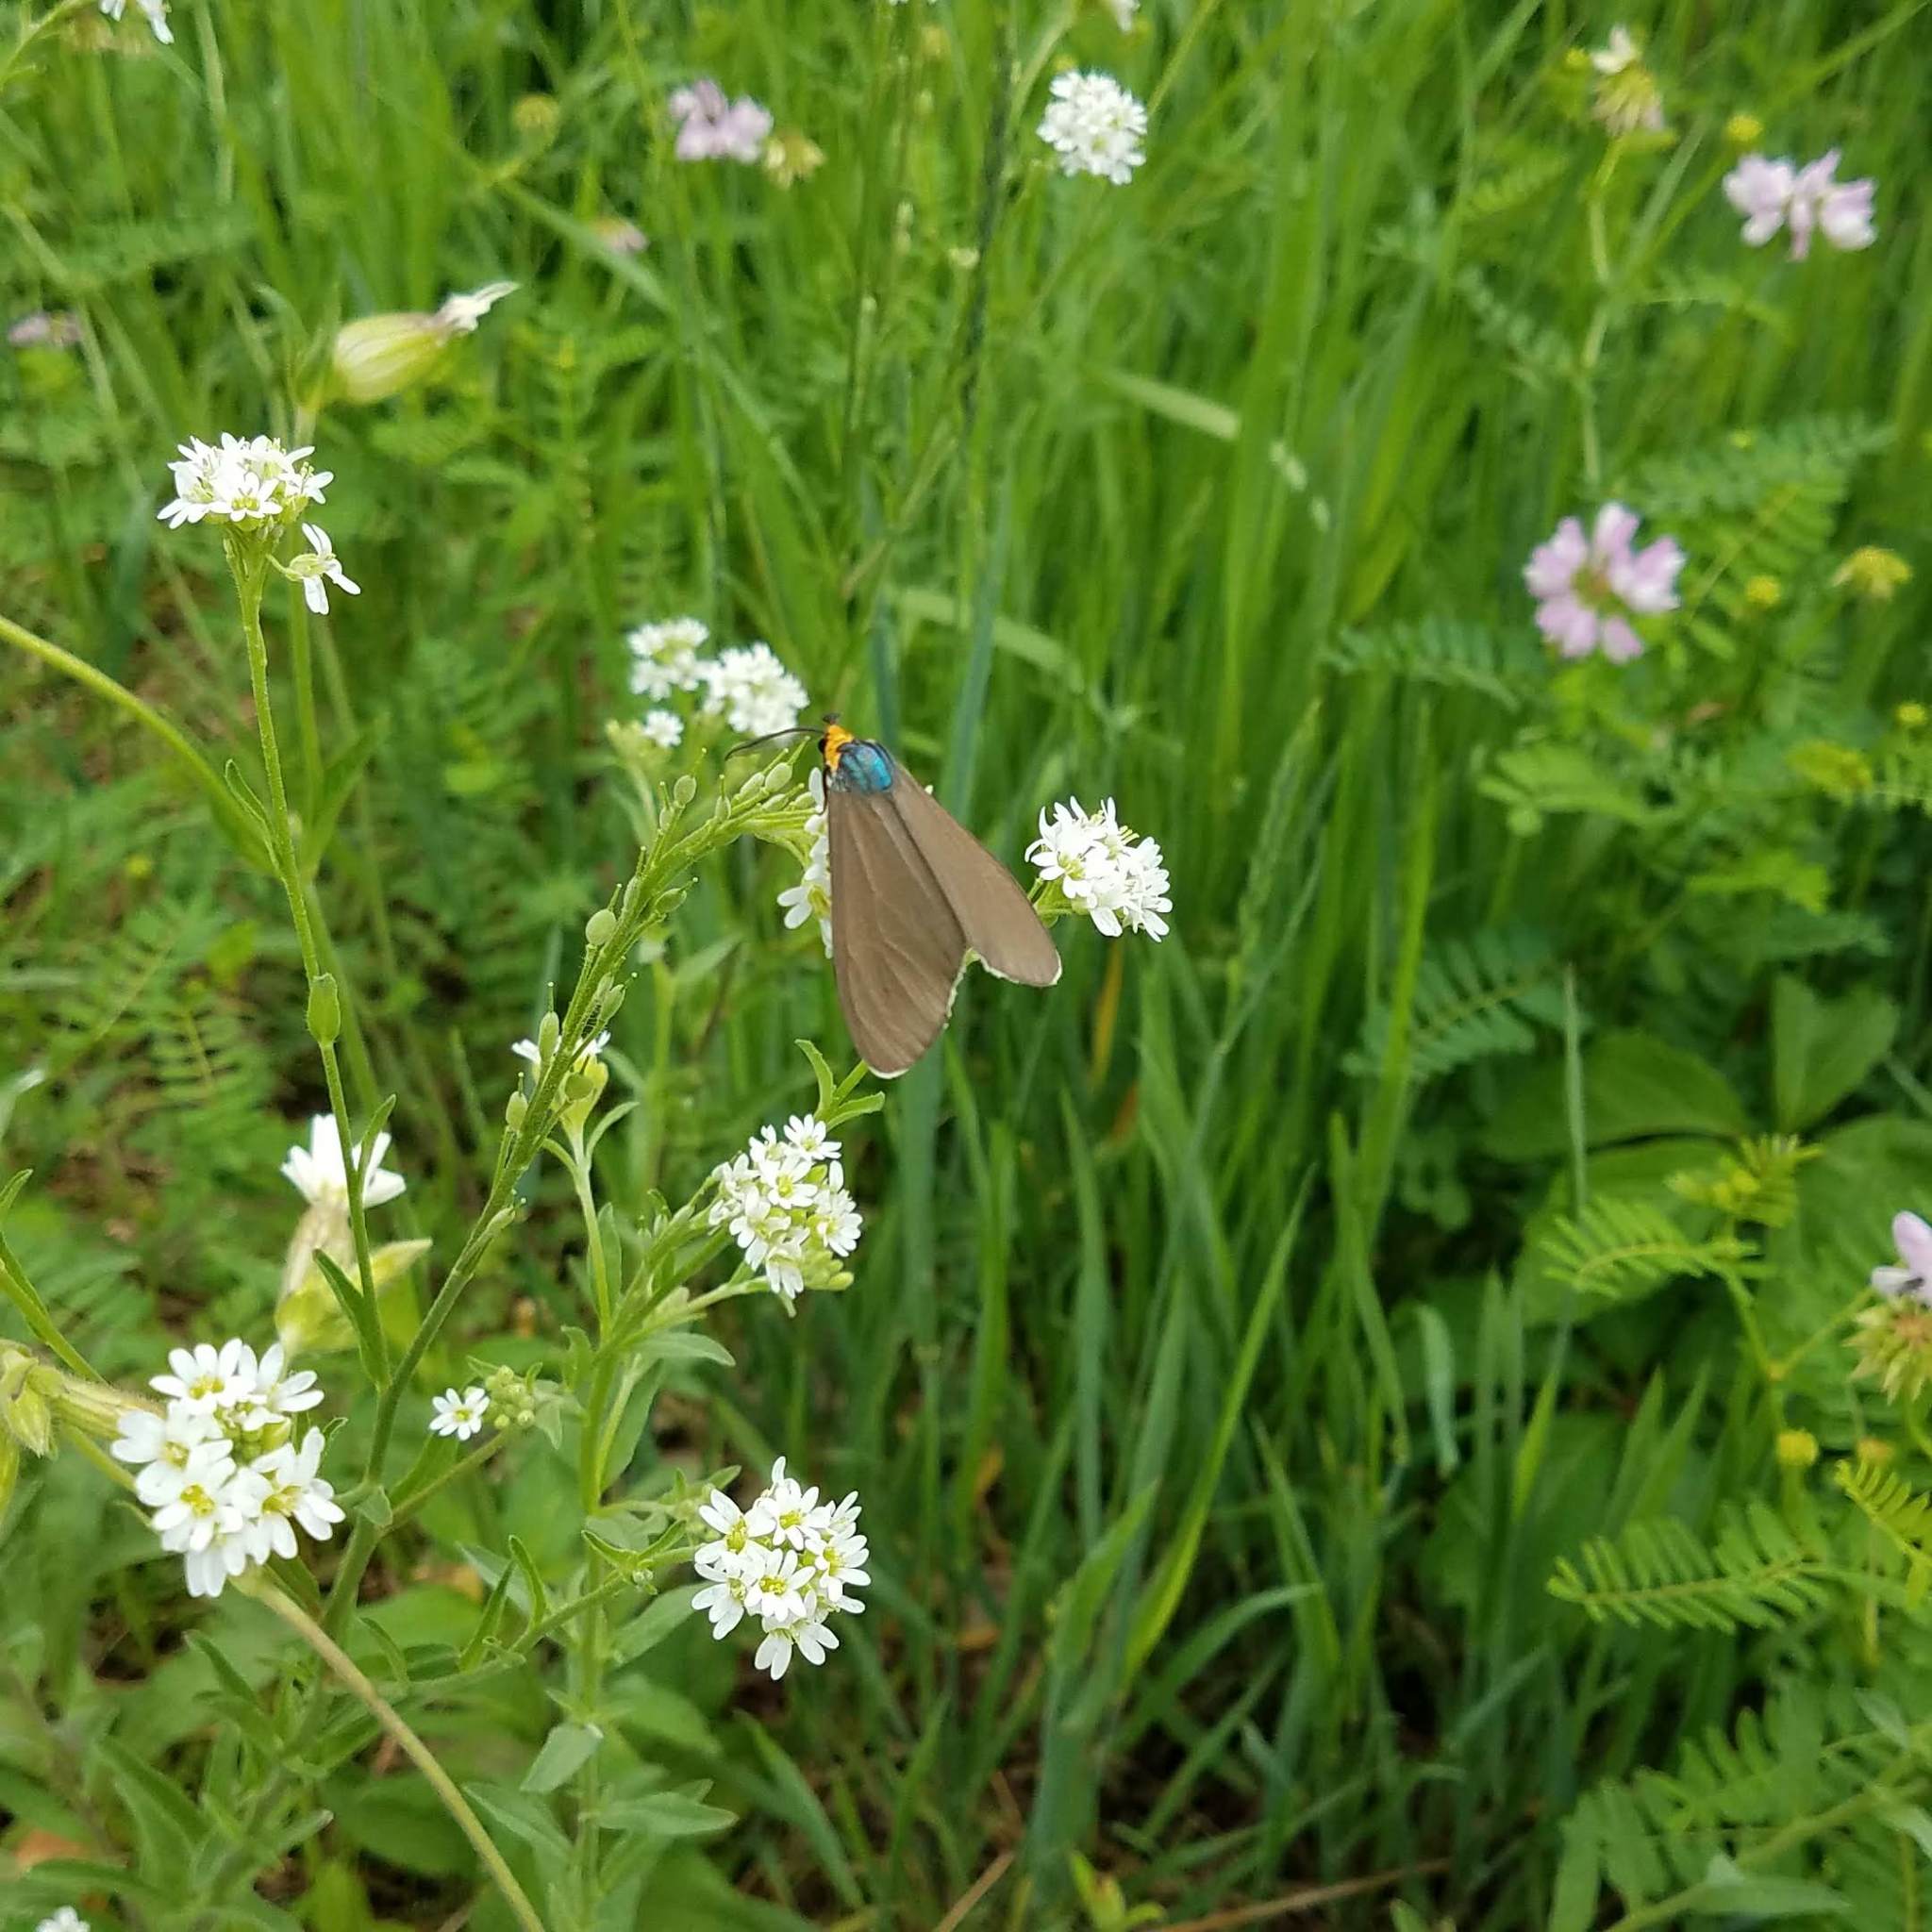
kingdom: Animalia
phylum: Arthropoda
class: Insecta
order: Lepidoptera
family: Erebidae
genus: Ctenucha
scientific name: Ctenucha virginica
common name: Virginia ctenucha moth
